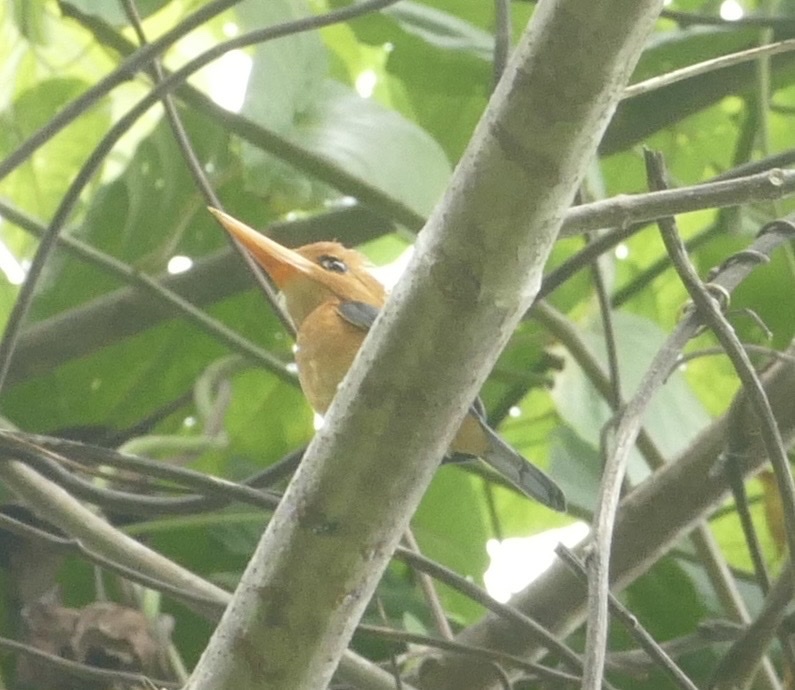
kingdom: Animalia
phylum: Chordata
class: Aves
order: Coraciiformes
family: Alcedinidae
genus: Syma
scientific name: Syma torotoro
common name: Yellow-billed kingfisher
